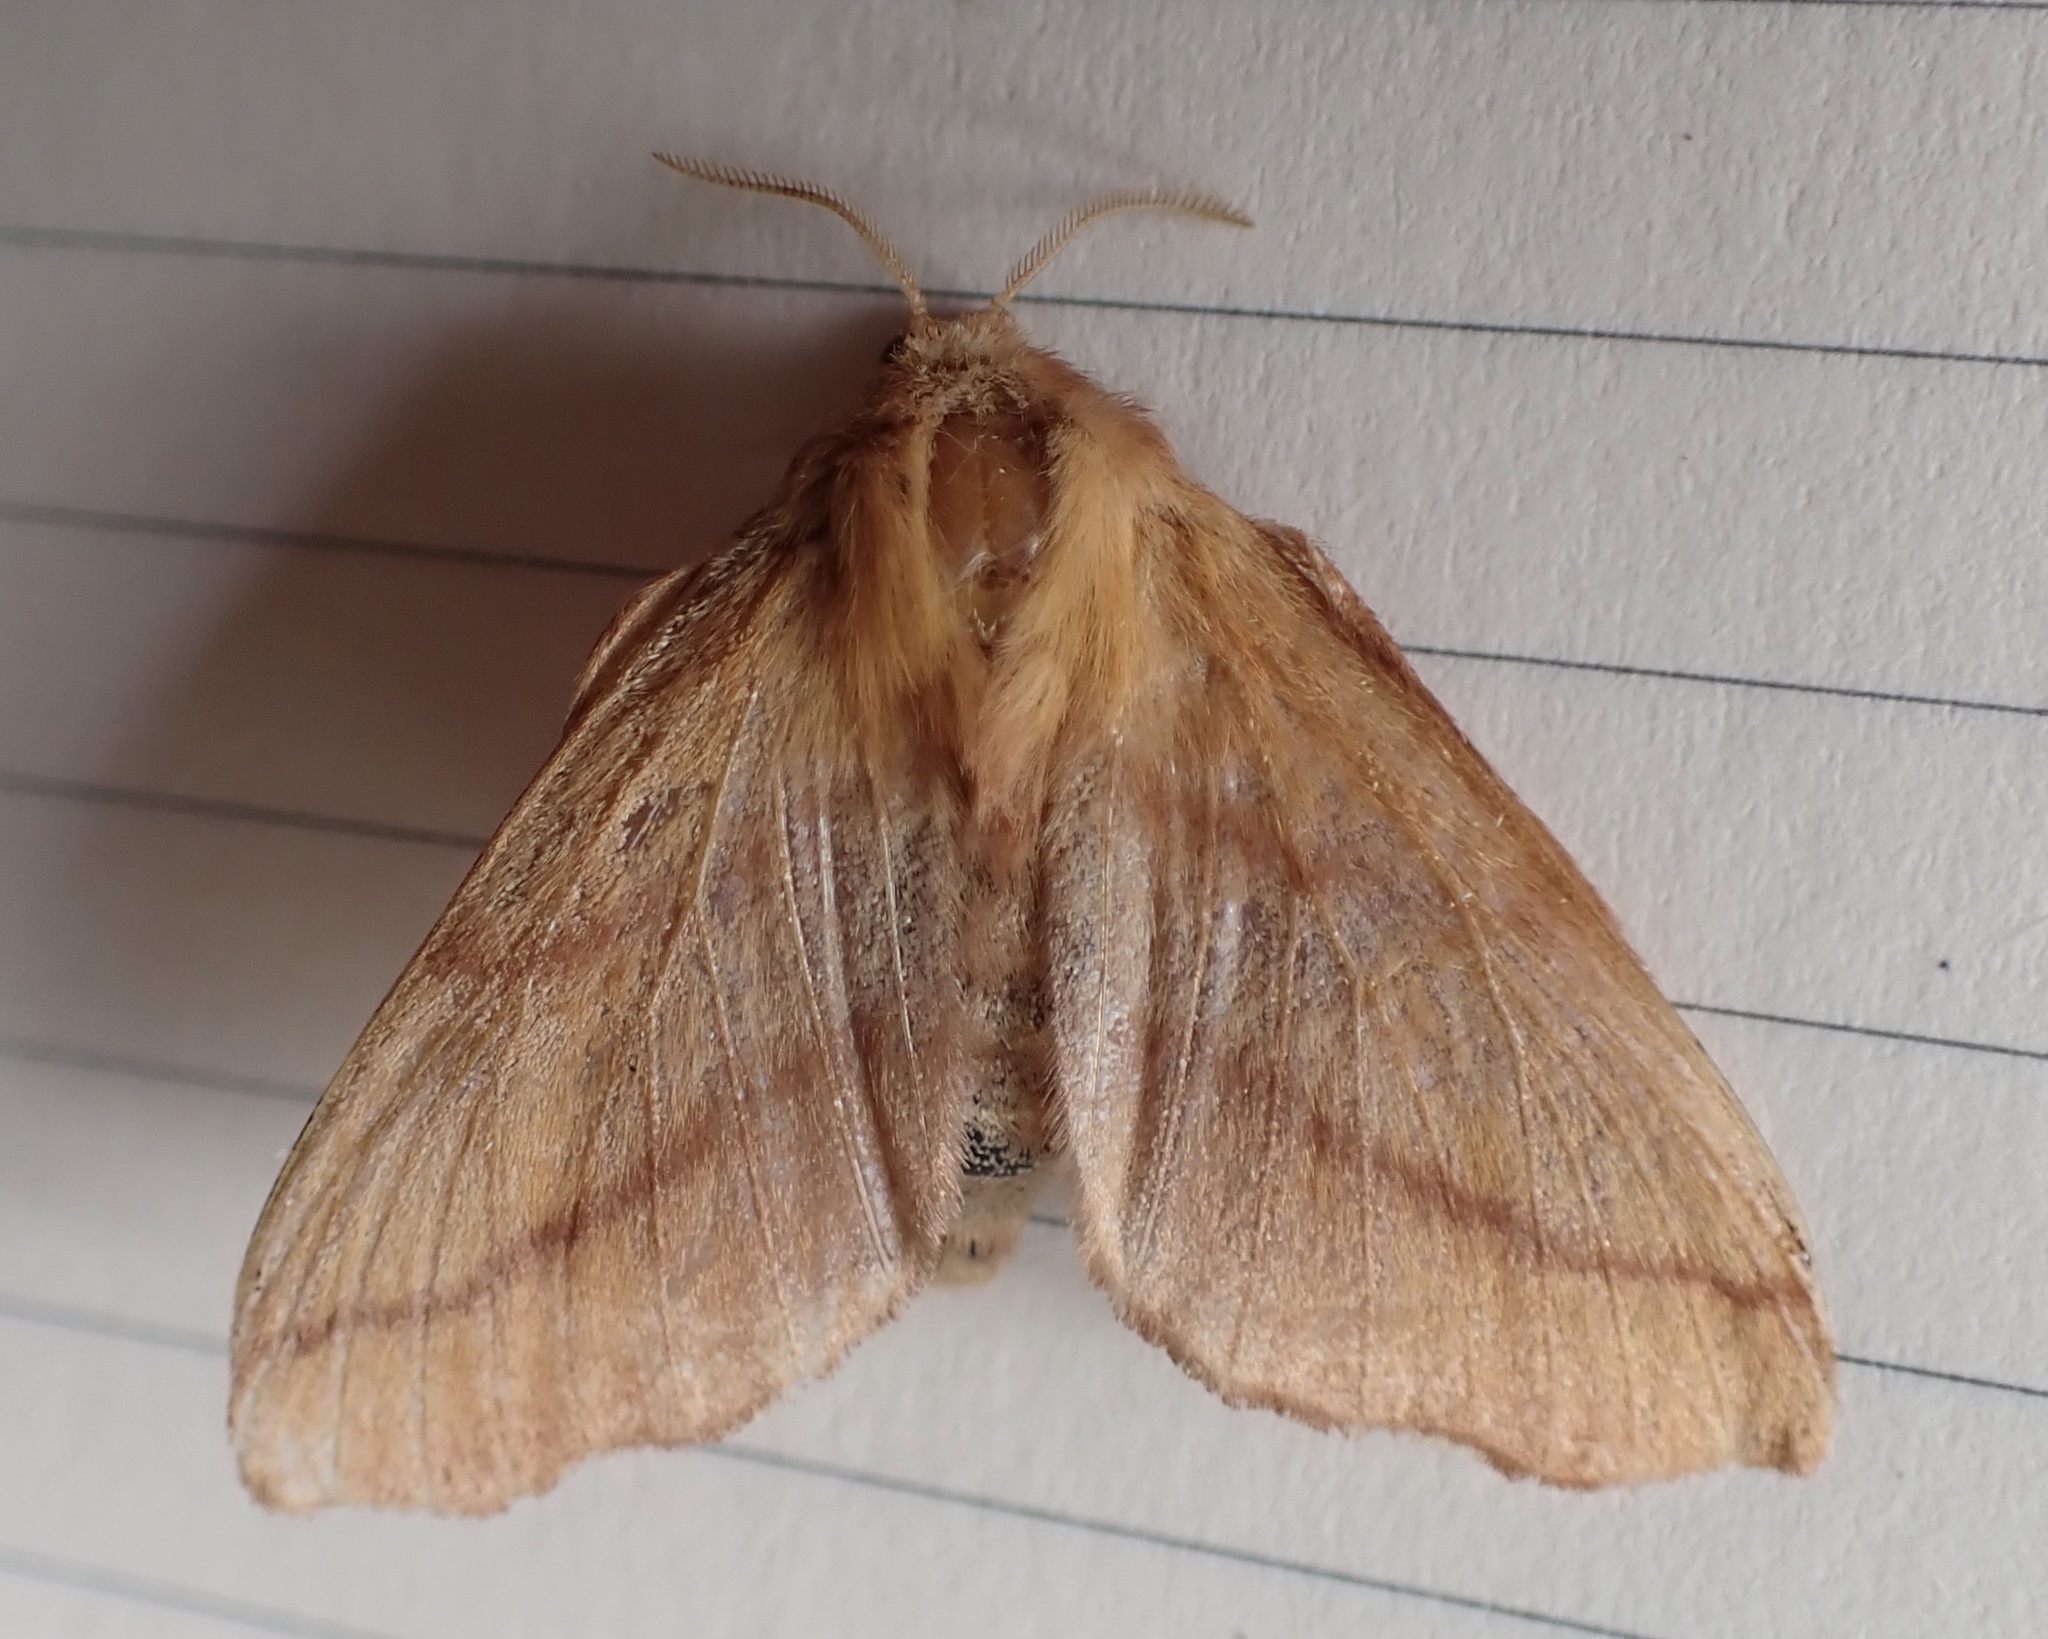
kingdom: Animalia
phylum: Arthropoda
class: Insecta
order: Lepidoptera
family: Lasiocampidae
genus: Malacosoma
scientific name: Malacosoma disstria
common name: Forest tent caterpillar
